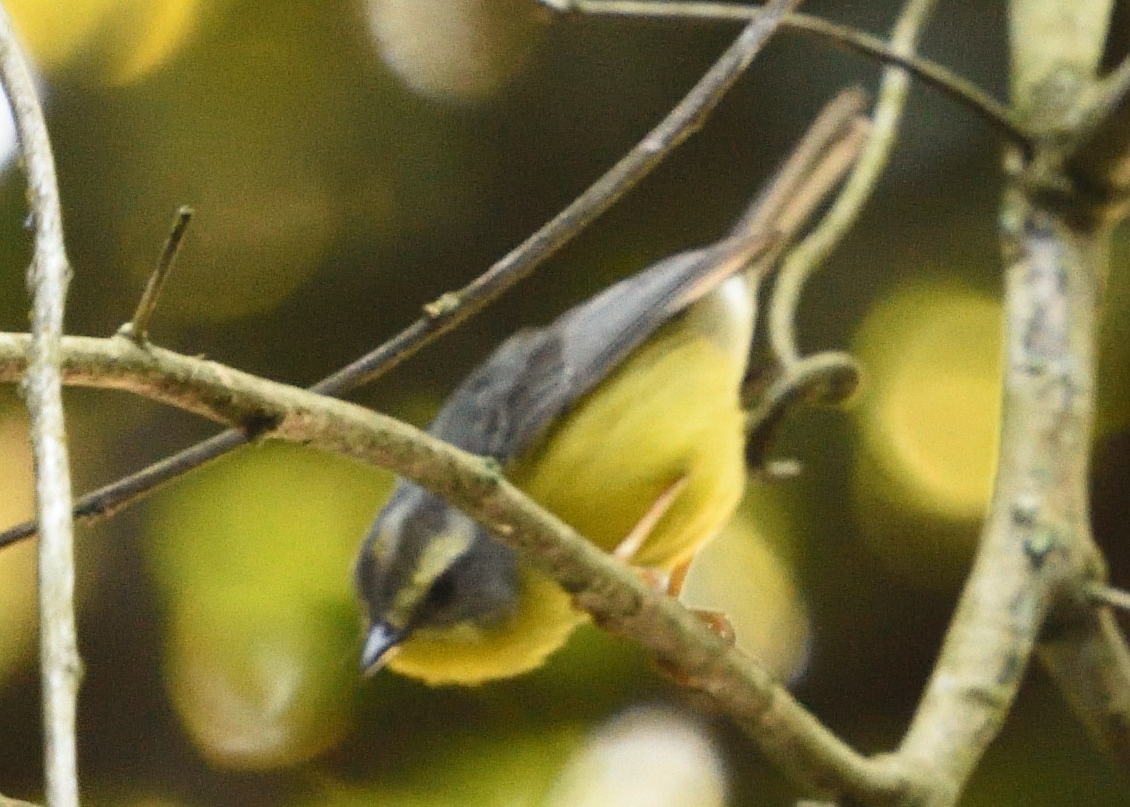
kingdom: Animalia
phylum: Chordata
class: Aves
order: Passeriformes
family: Parulidae
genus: Basileuterus
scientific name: Basileuterus culicivorus
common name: Golden-crowned warbler
